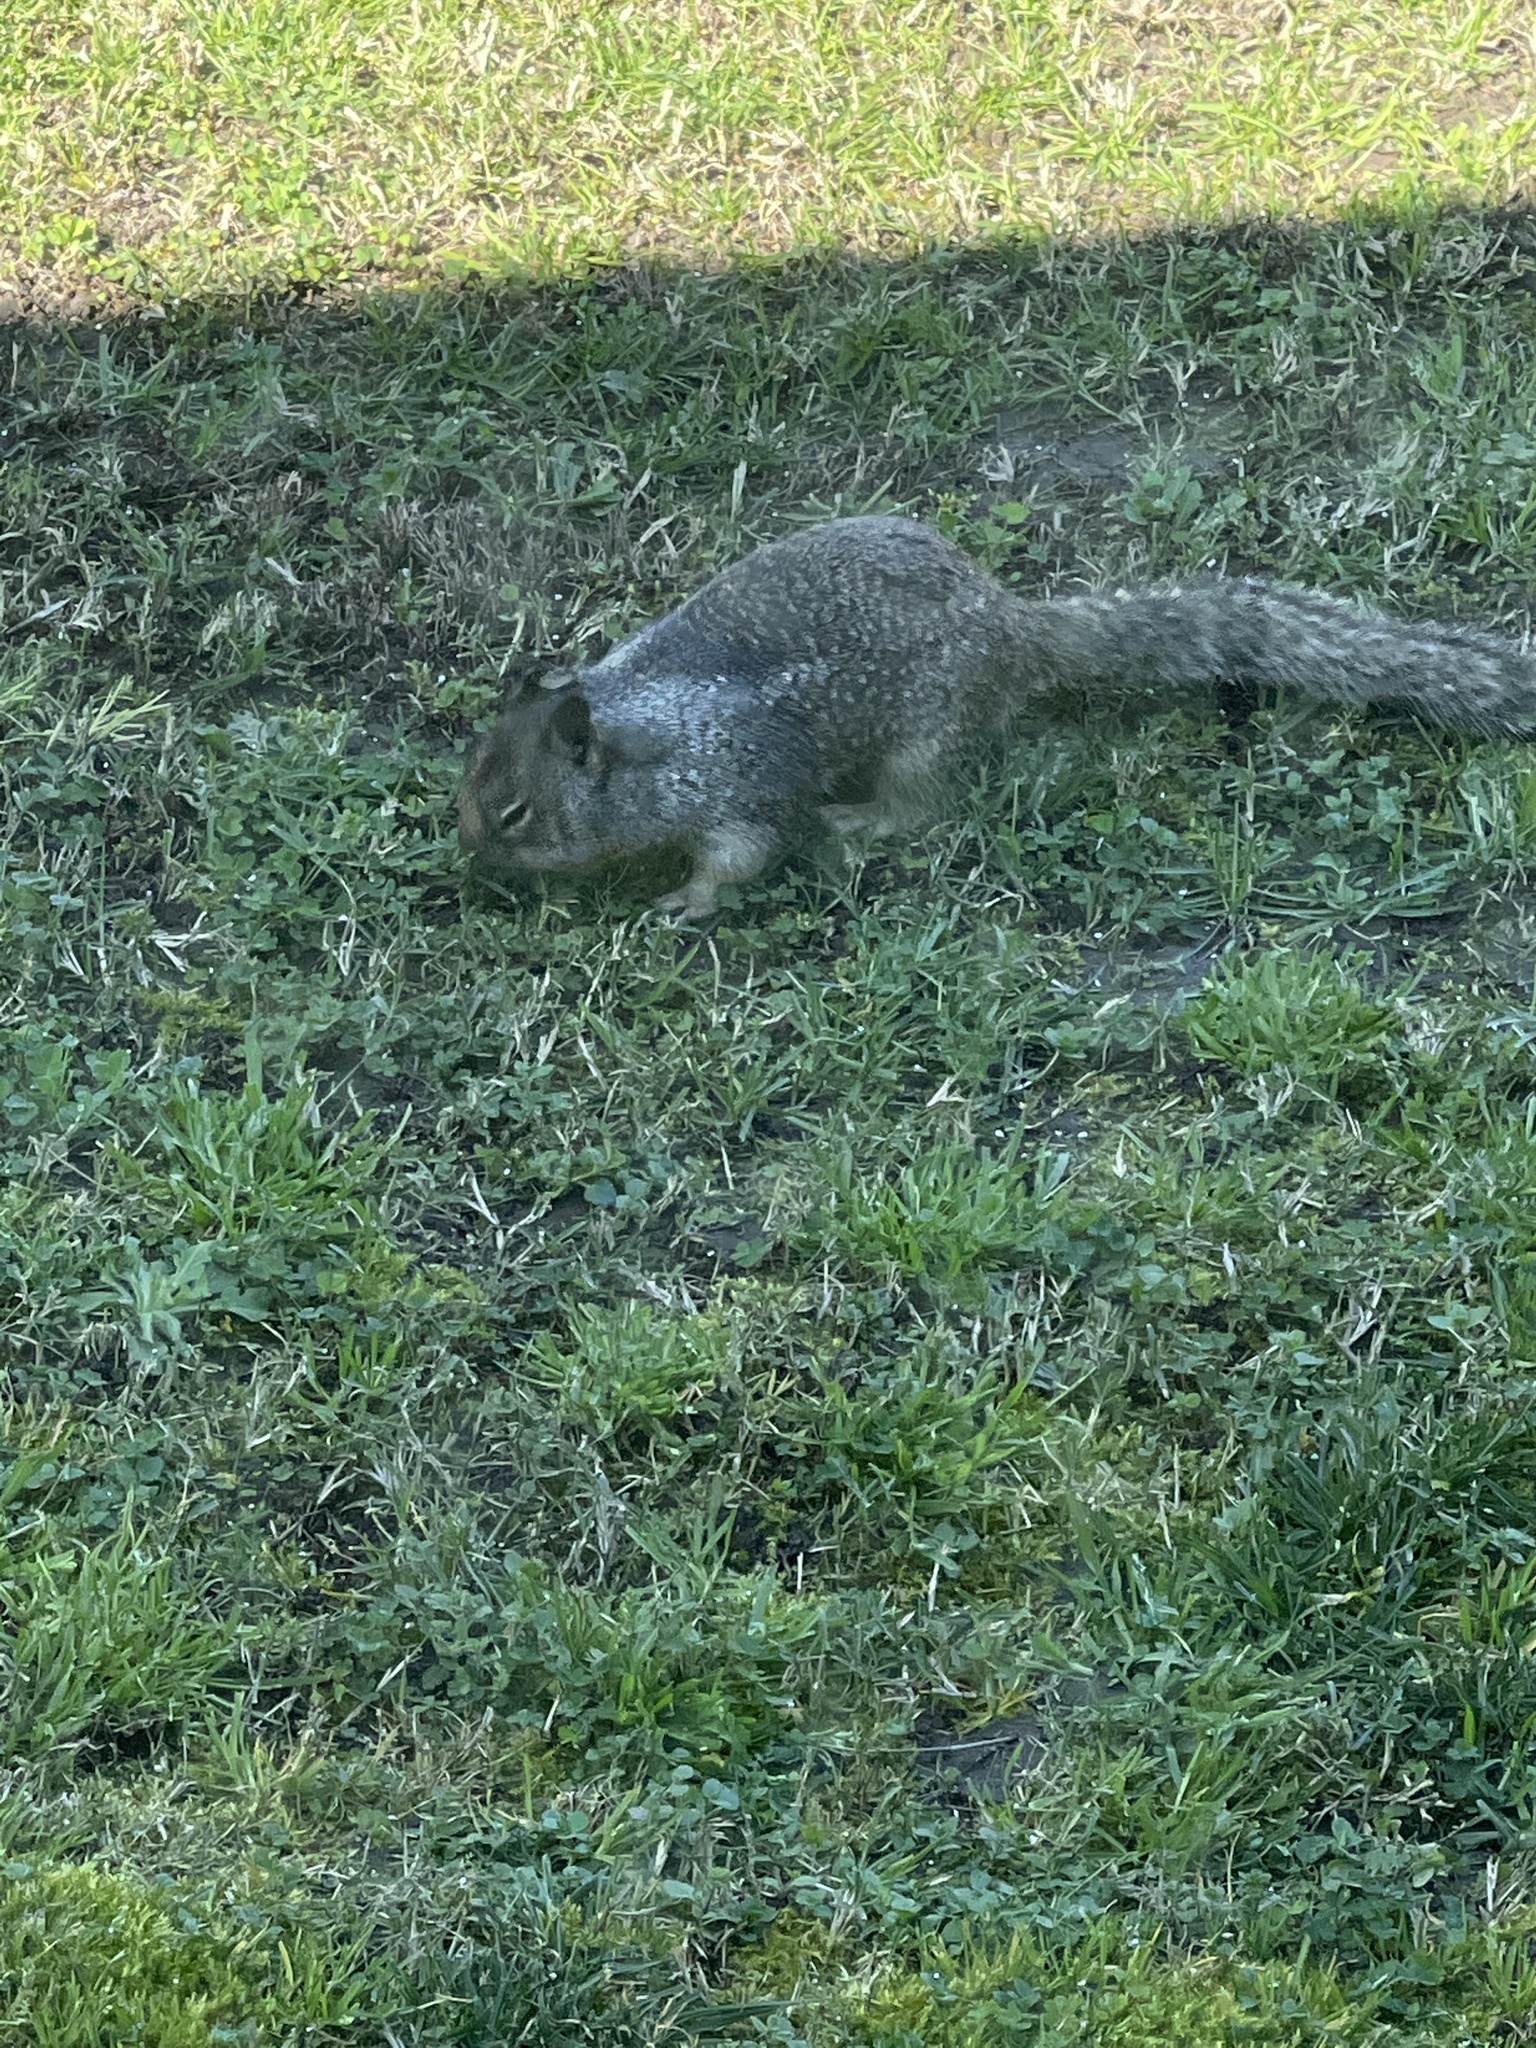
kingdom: Animalia
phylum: Chordata
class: Mammalia
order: Rodentia
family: Sciuridae
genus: Otospermophilus
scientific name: Otospermophilus beecheyi
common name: California ground squirrel
